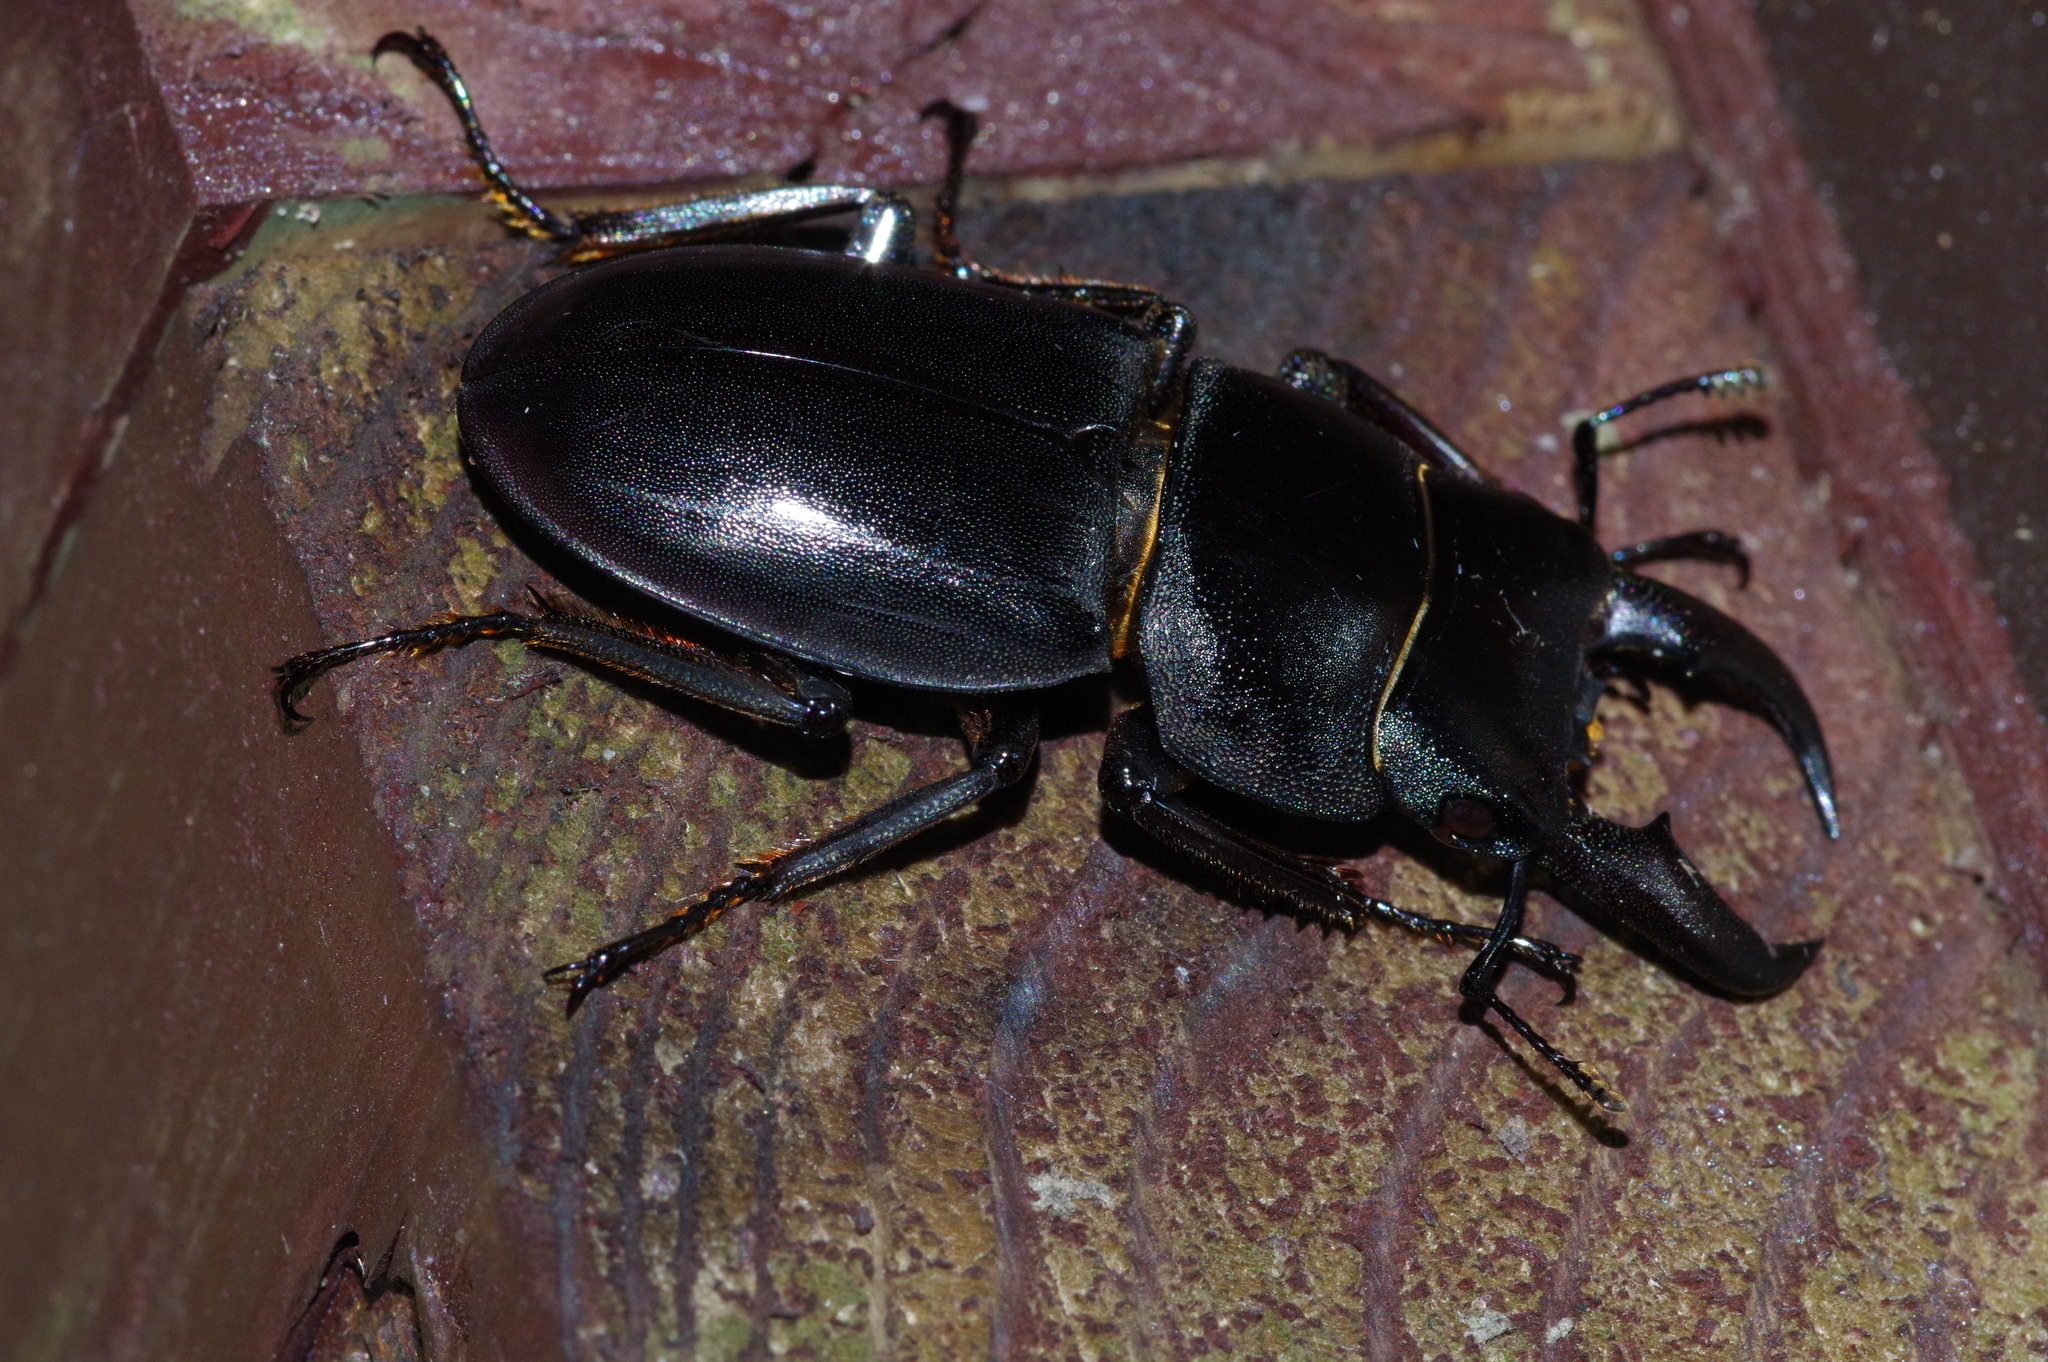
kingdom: Animalia
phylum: Arthropoda
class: Insecta
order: Coleoptera
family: Lucanidae
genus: Serrognathus
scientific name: Serrognathus titanus
